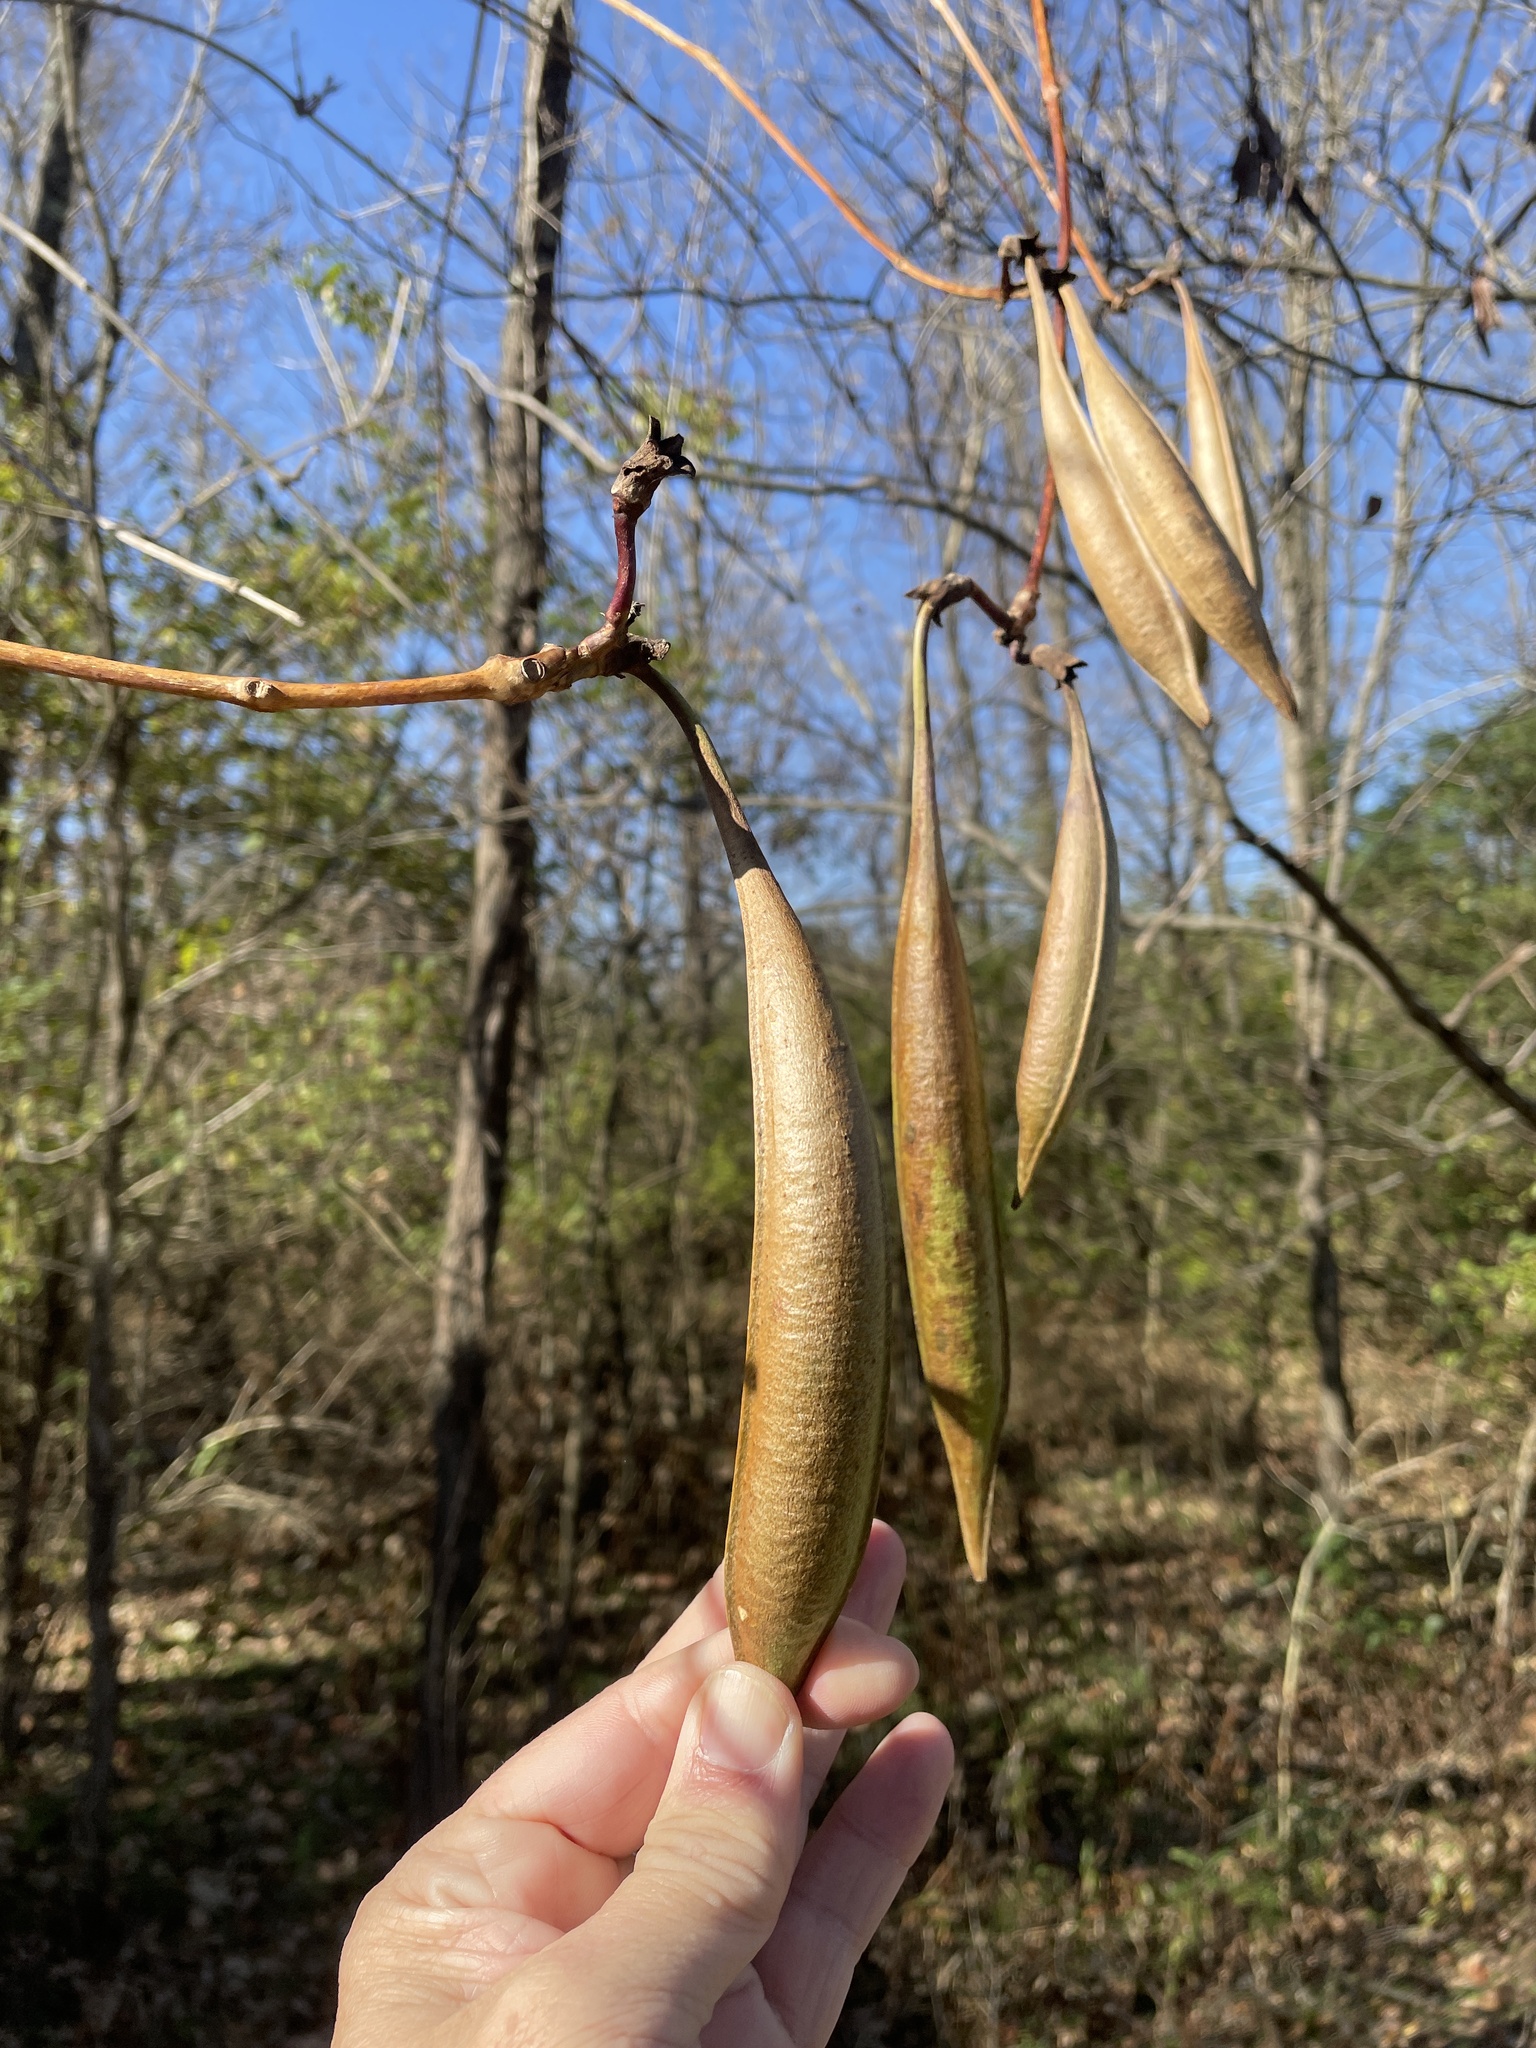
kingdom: Plantae
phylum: Tracheophyta
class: Magnoliopsida
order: Lamiales
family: Bignoniaceae
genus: Campsis
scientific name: Campsis radicans
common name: Trumpet-creeper
